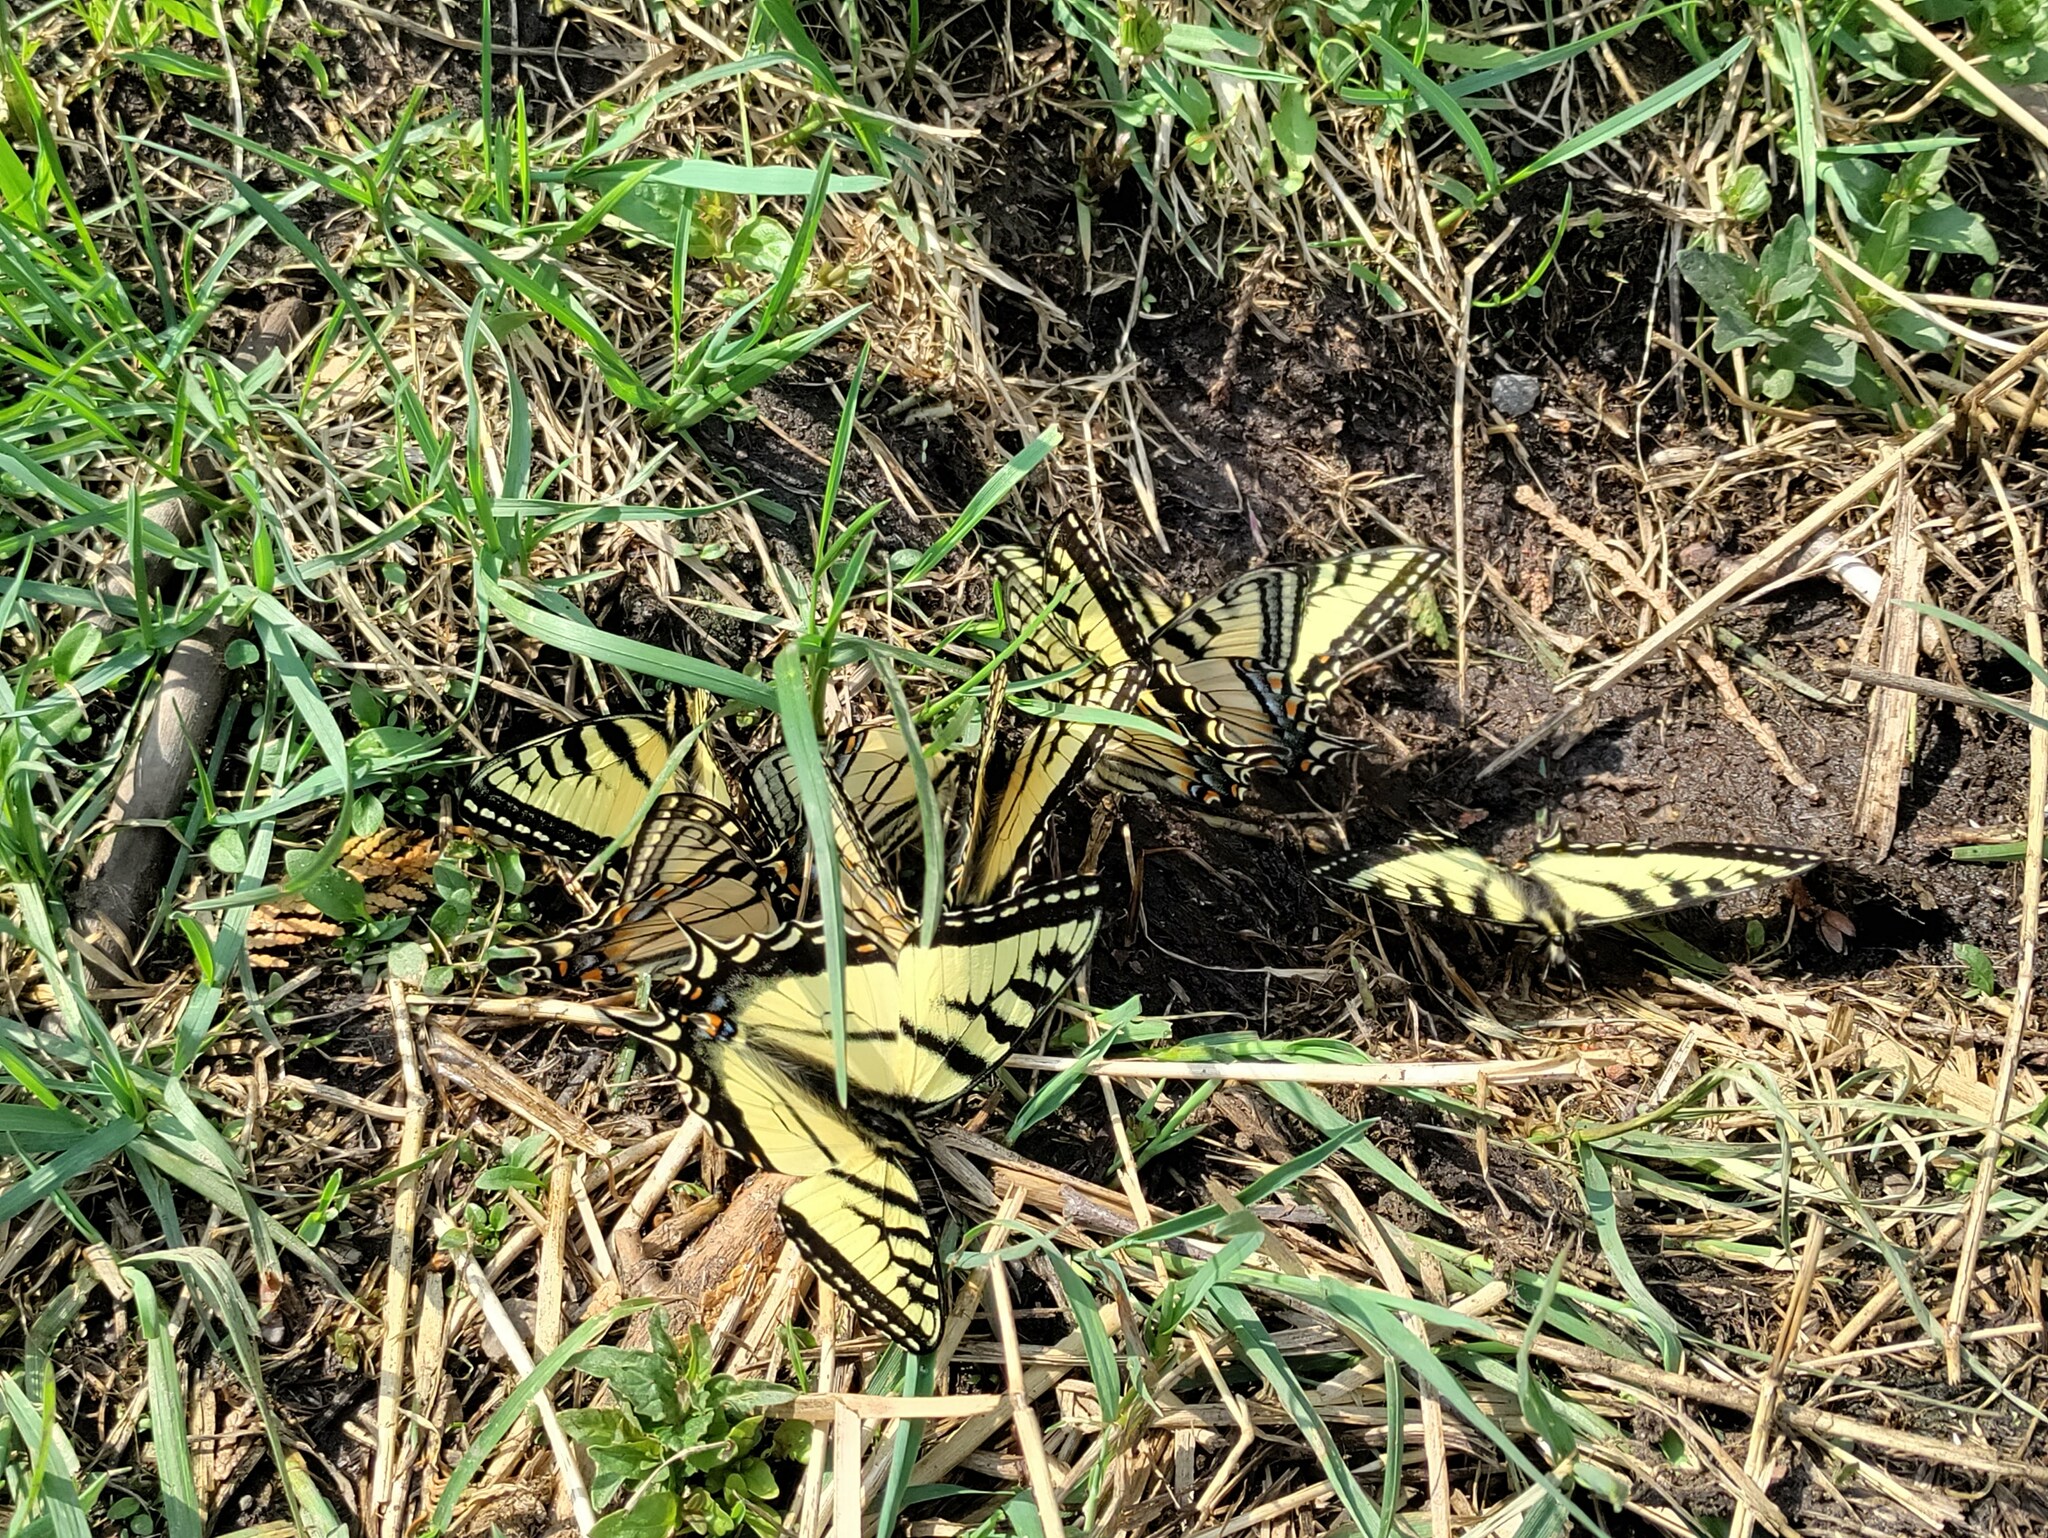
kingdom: Animalia
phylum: Arthropoda
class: Insecta
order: Lepidoptera
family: Papilionidae
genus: Papilio
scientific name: Papilio canadensis
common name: Canadian tiger swallowtail
